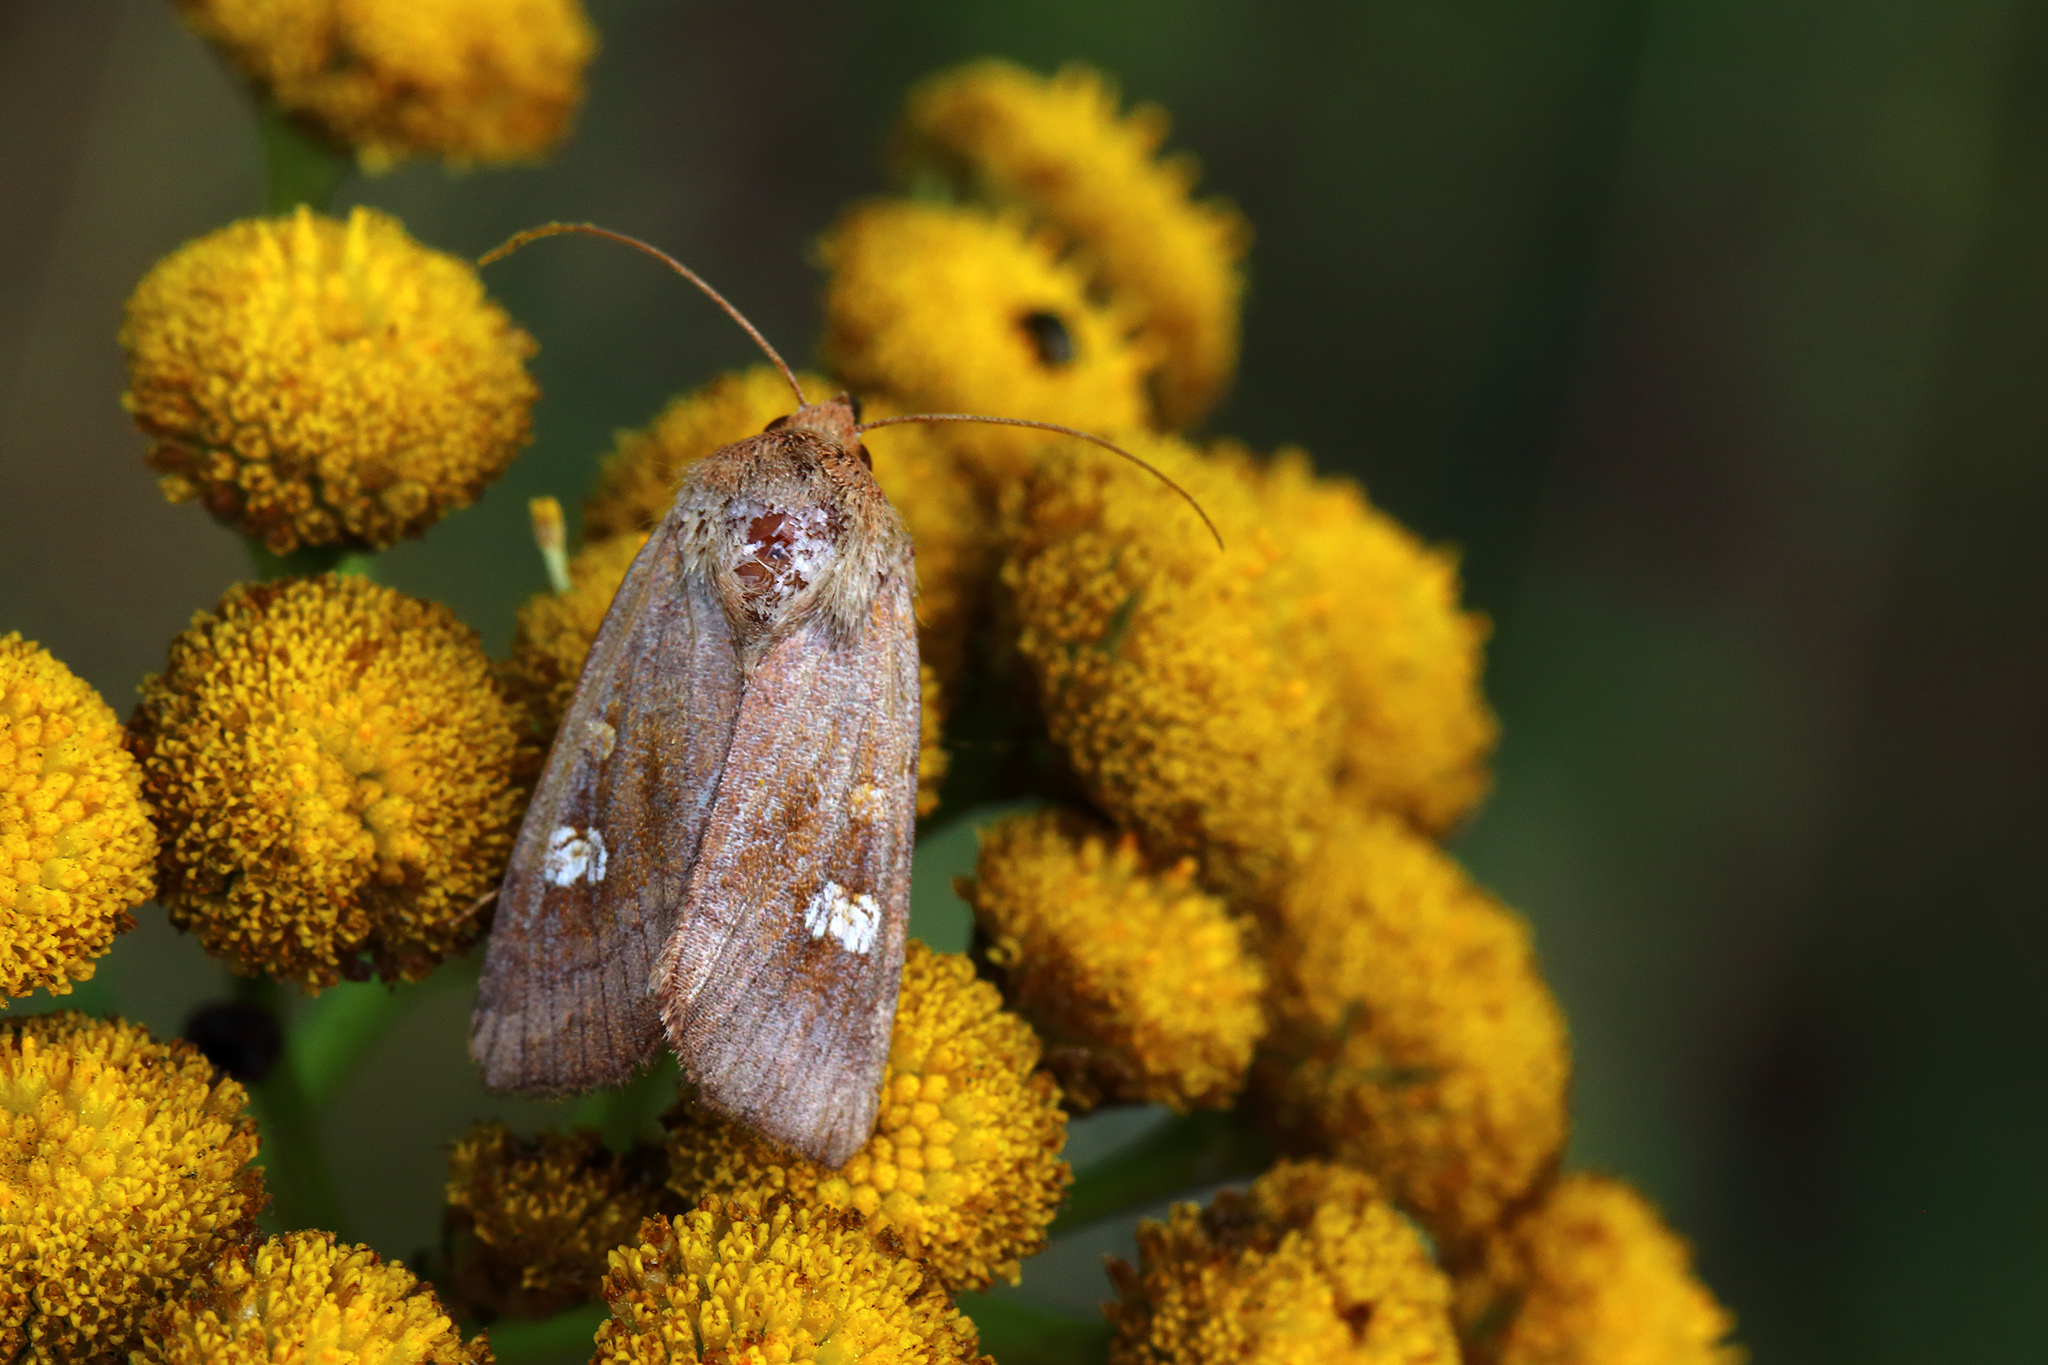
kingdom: Animalia
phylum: Arthropoda
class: Insecta
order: Lepidoptera
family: Noctuidae
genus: Amphipoea
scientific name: Amphipoea oculea
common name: Ear moth
